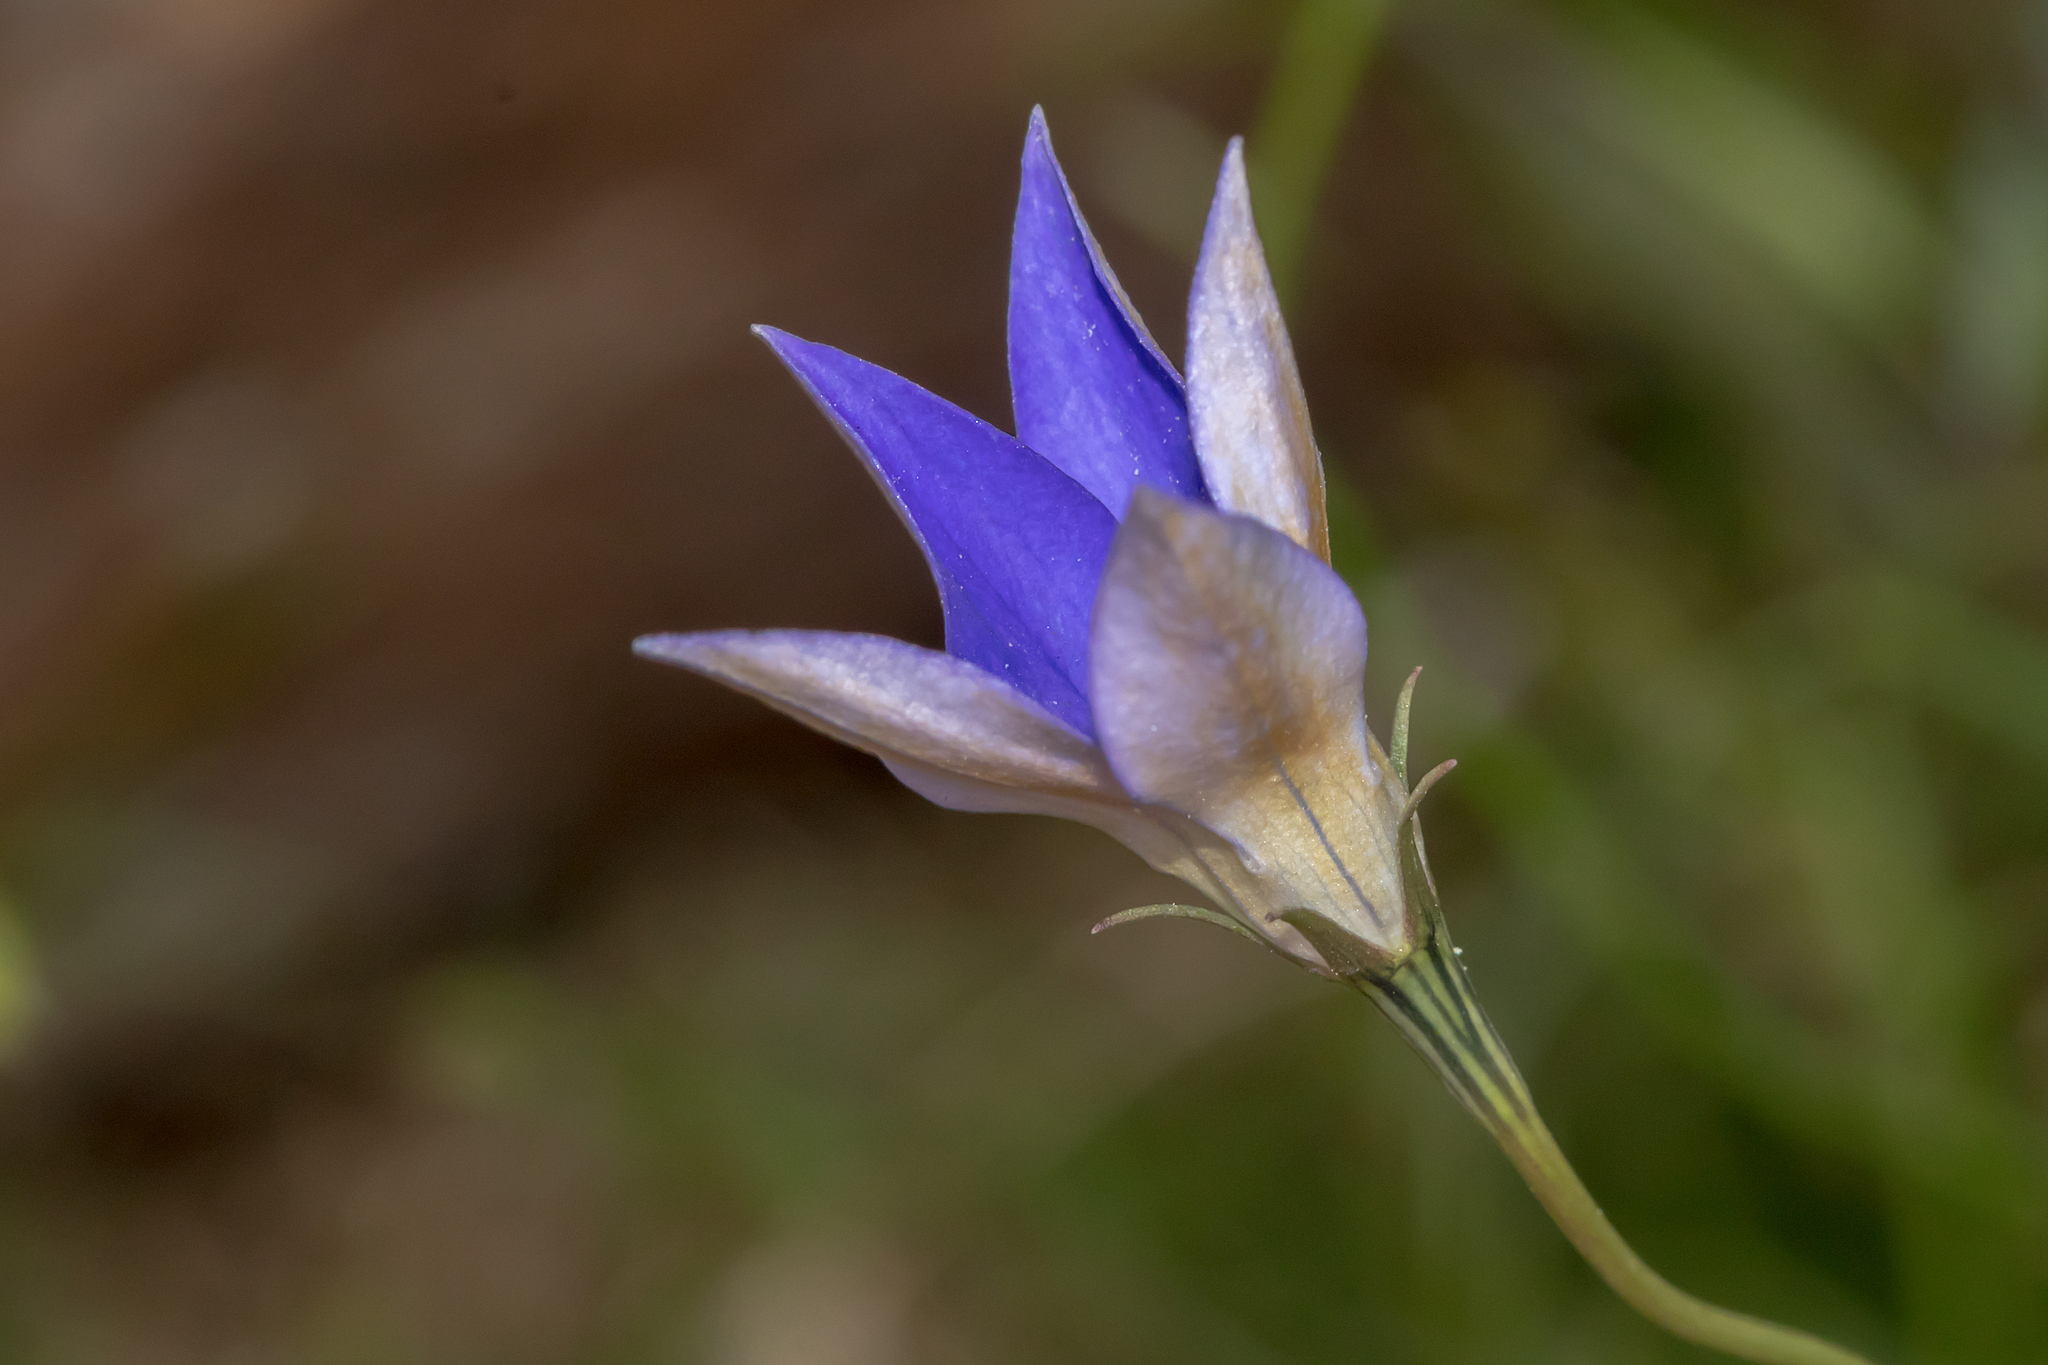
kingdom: Plantae
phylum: Tracheophyta
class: Magnoliopsida
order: Asterales
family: Campanulaceae
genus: Wahlenbergia
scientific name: Wahlenbergia luteola
